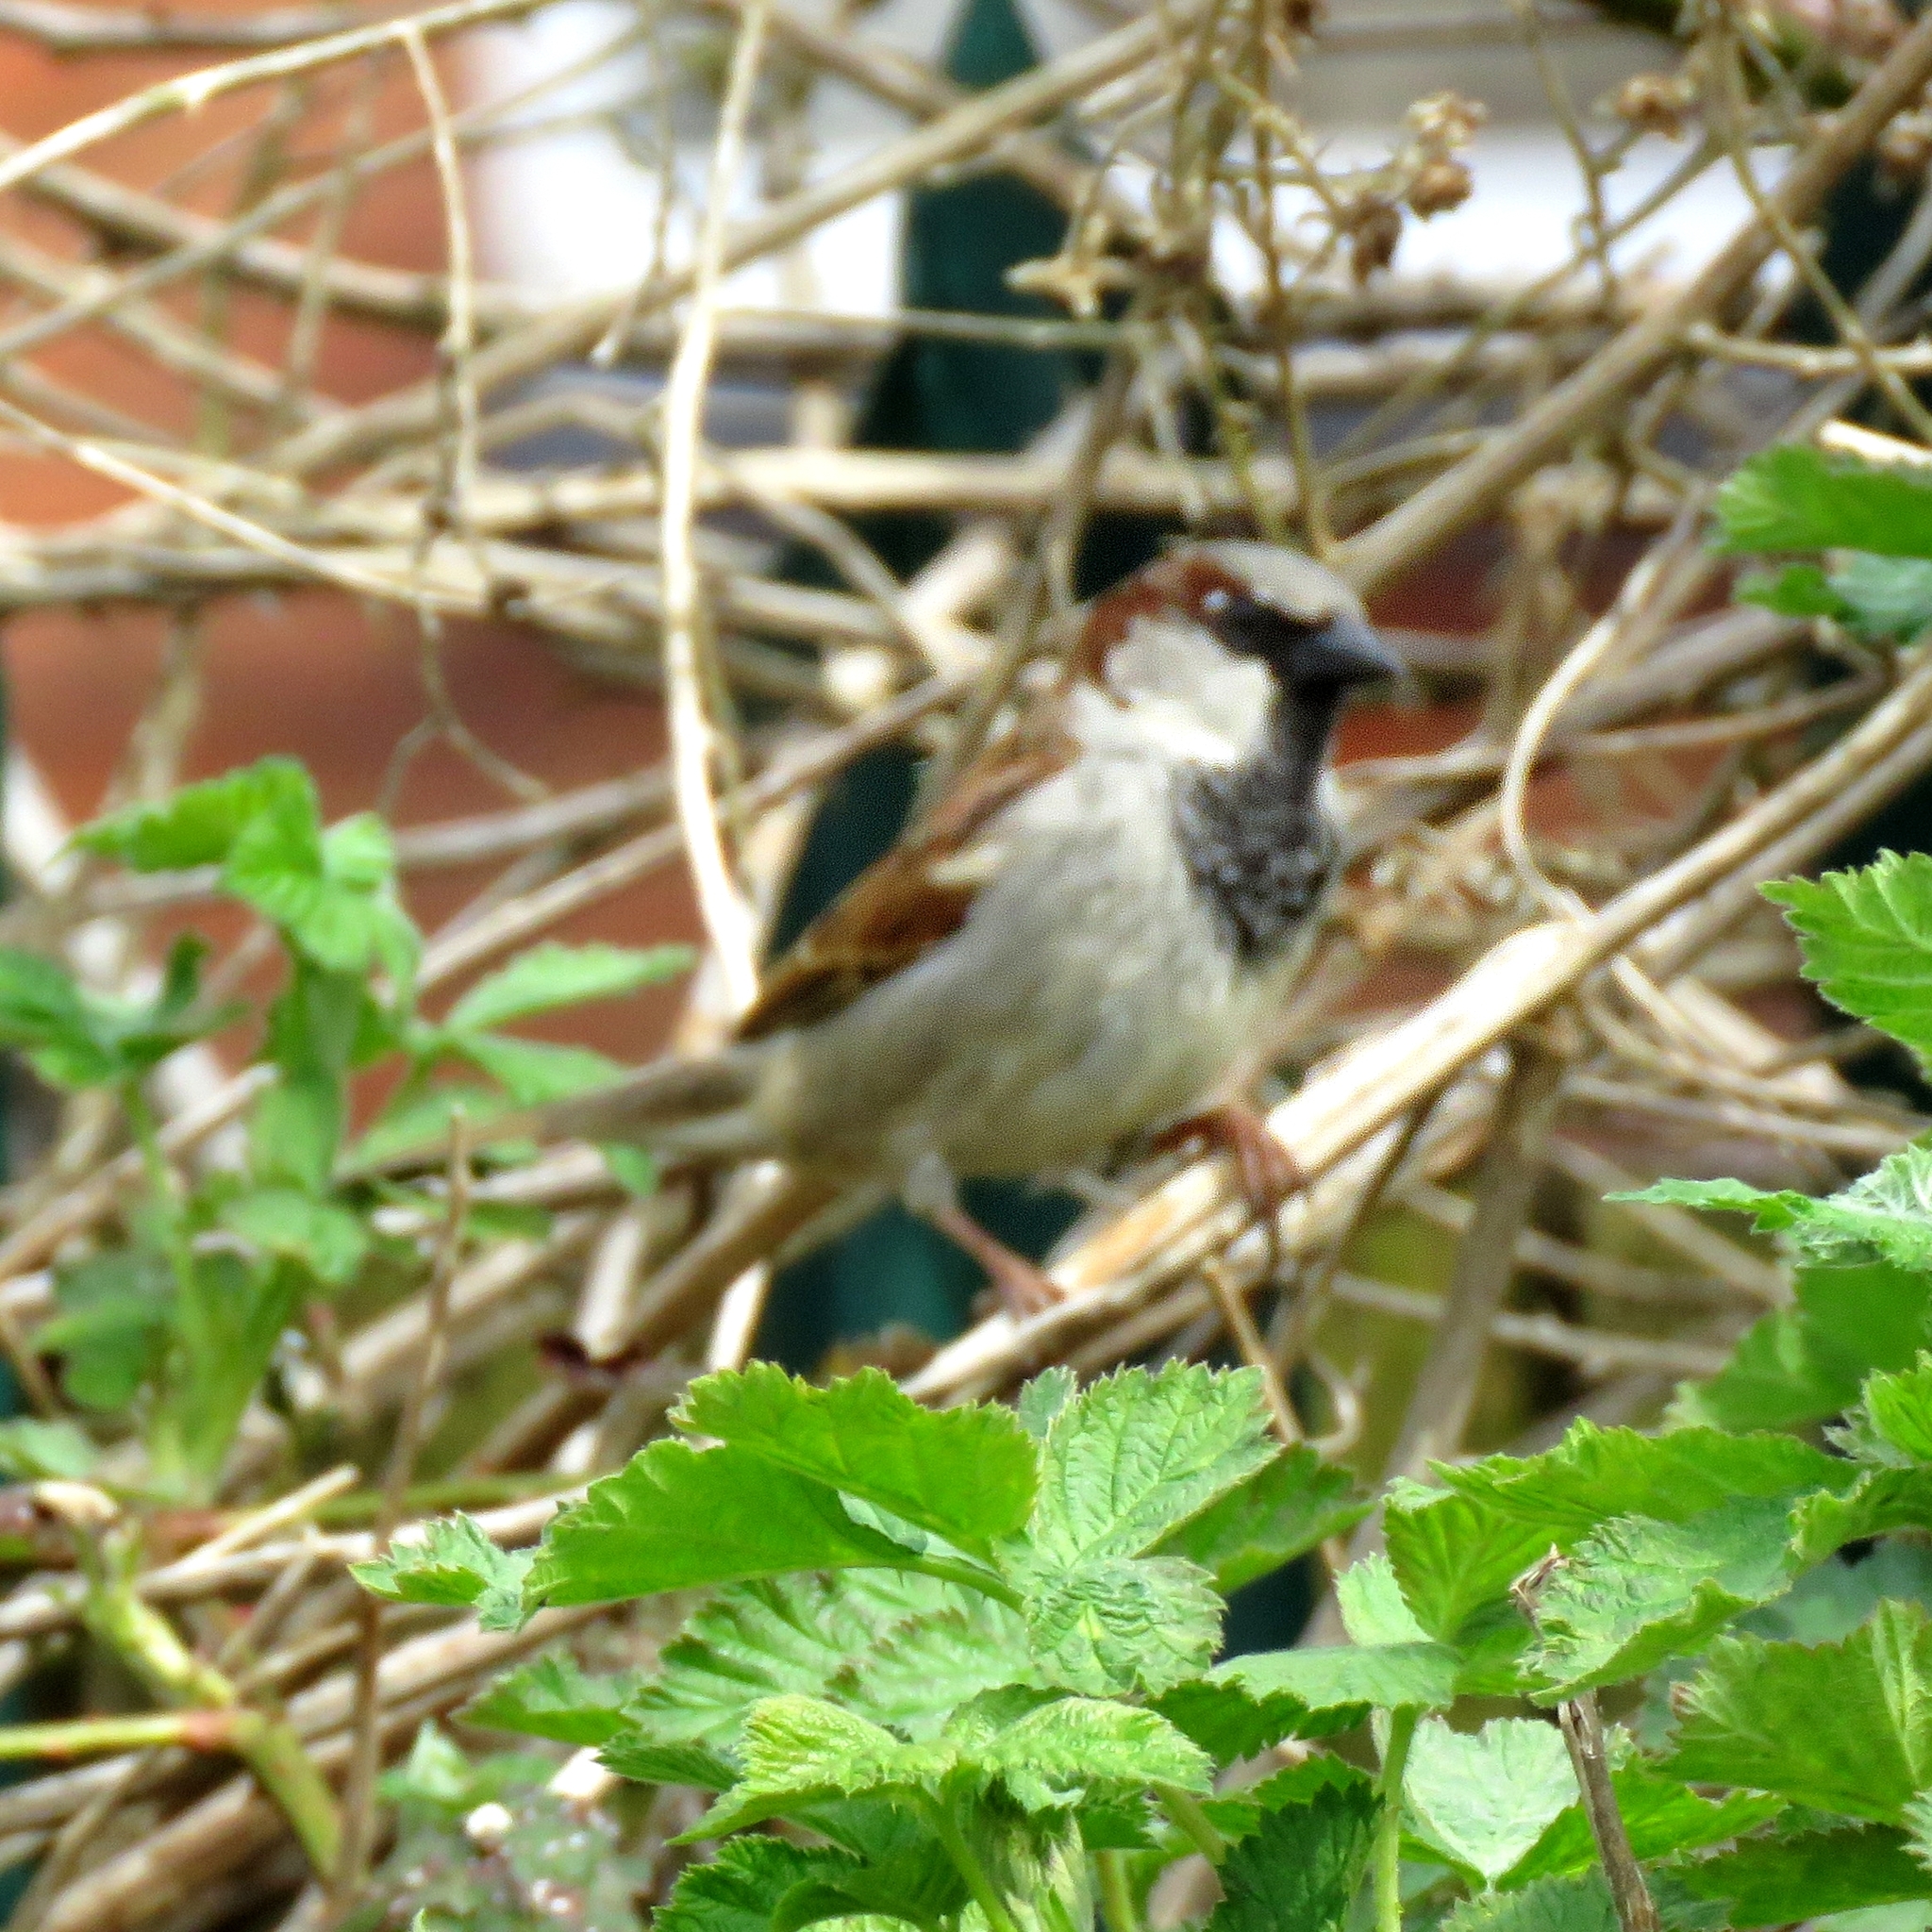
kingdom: Animalia
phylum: Chordata
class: Aves
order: Passeriformes
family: Passeridae
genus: Passer
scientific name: Passer domesticus
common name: House sparrow
